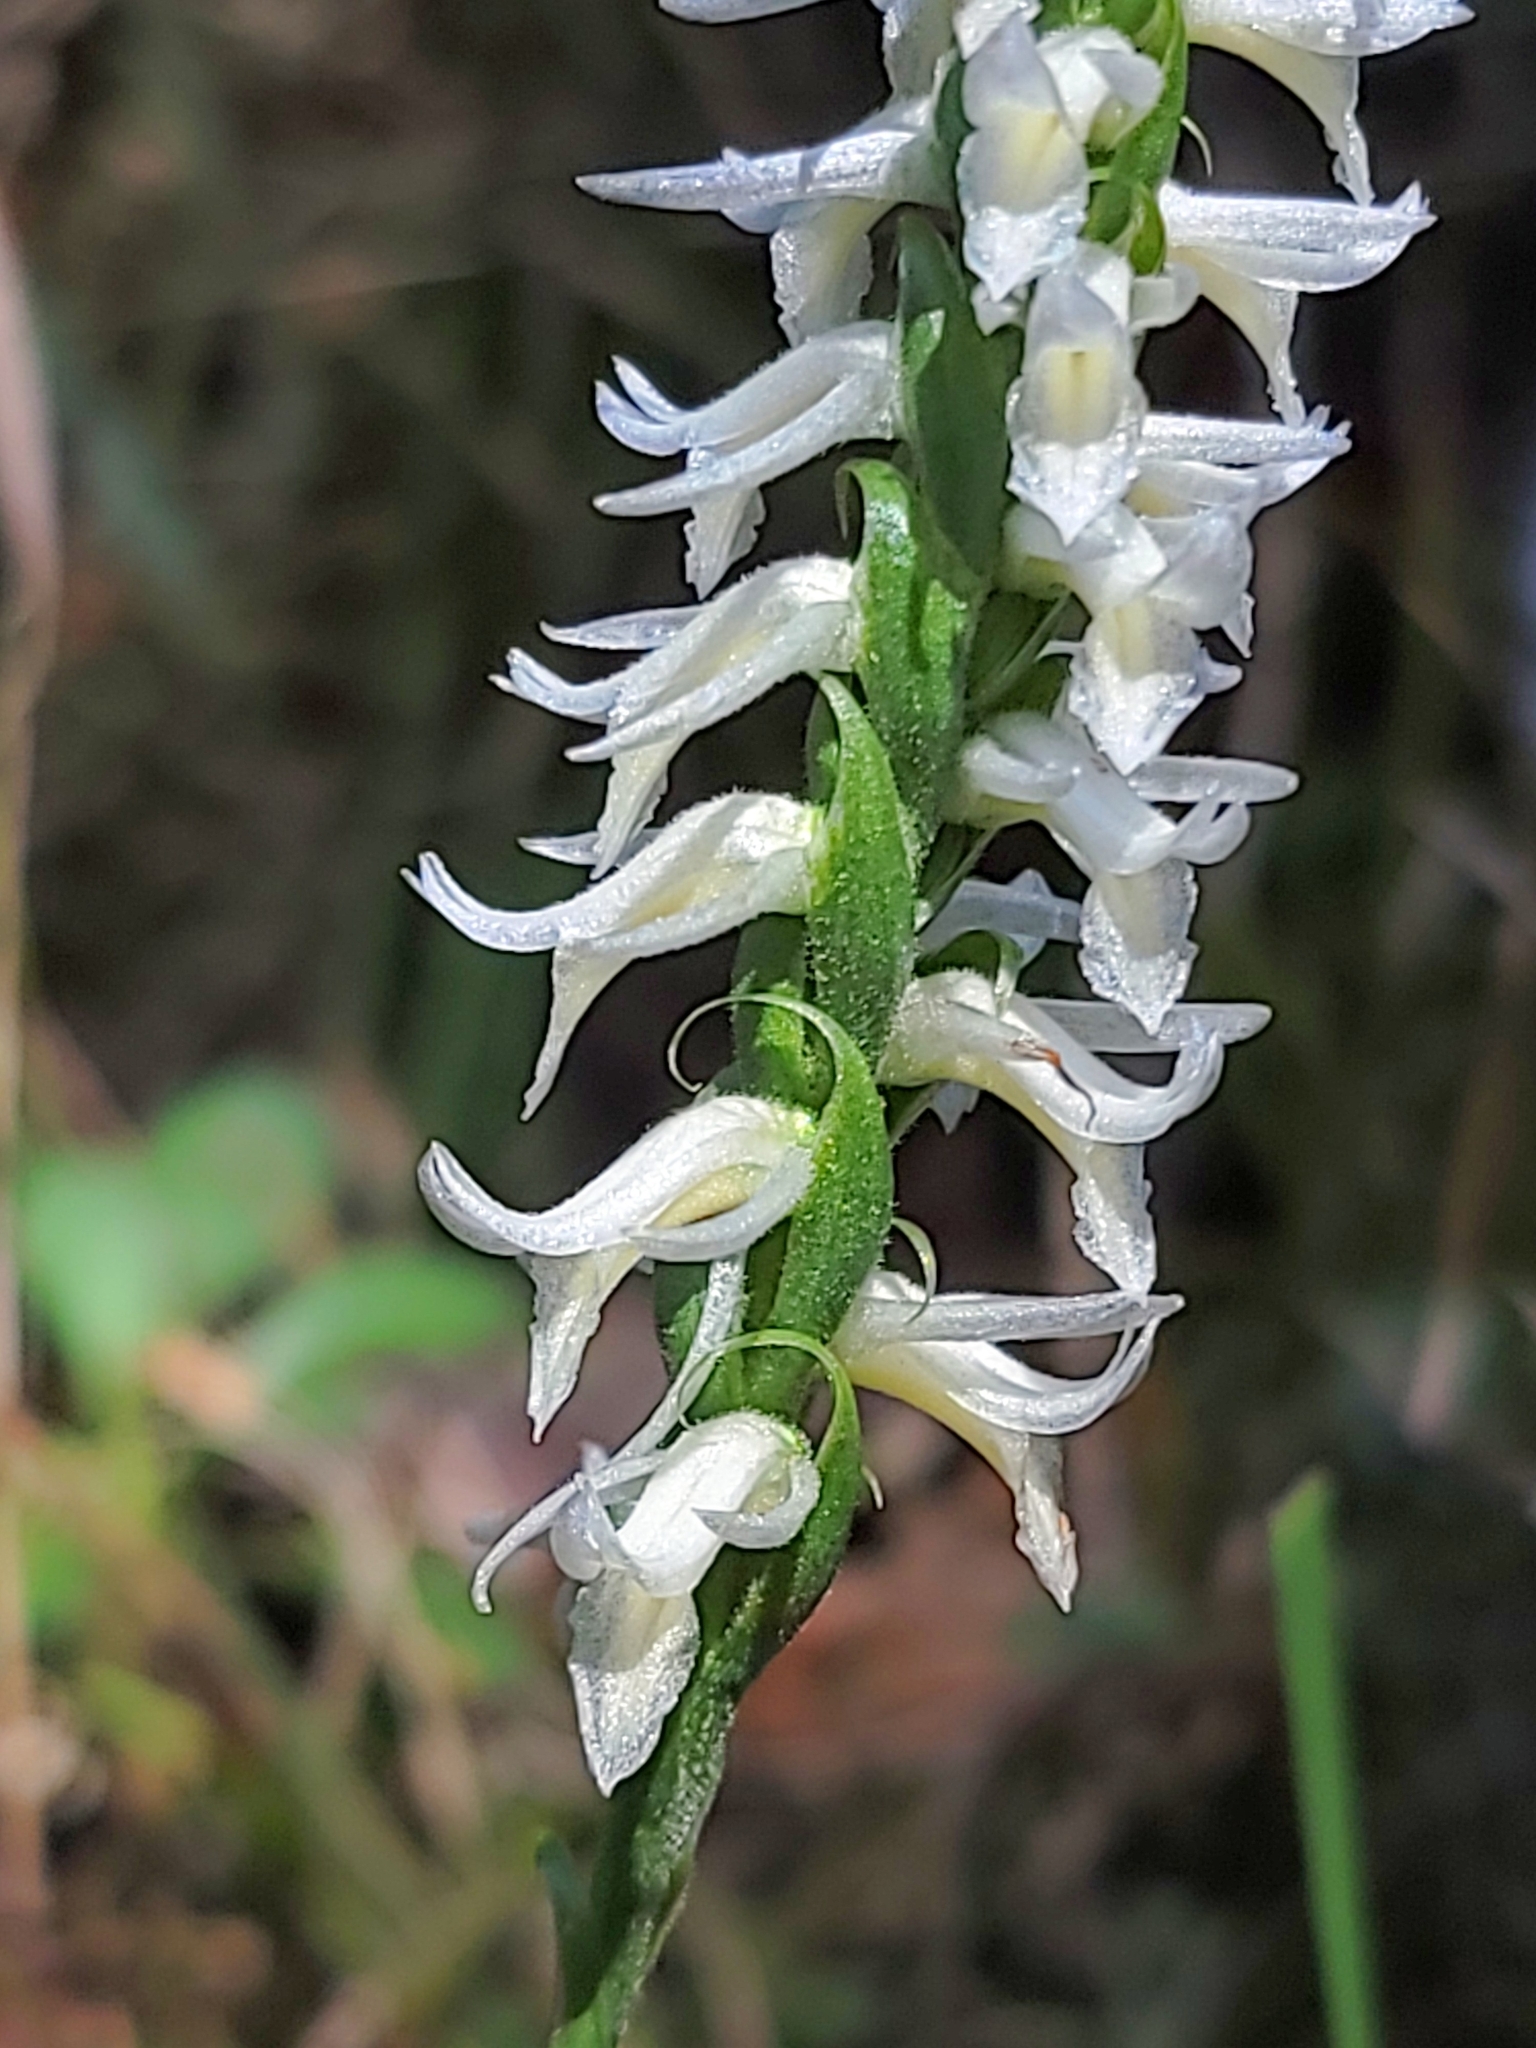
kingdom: Plantae
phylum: Tracheophyta
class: Liliopsida
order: Asparagales
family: Orchidaceae
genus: Spiranthes
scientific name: Spiranthes magnicamporum
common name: Great plains ladies'-tresses
